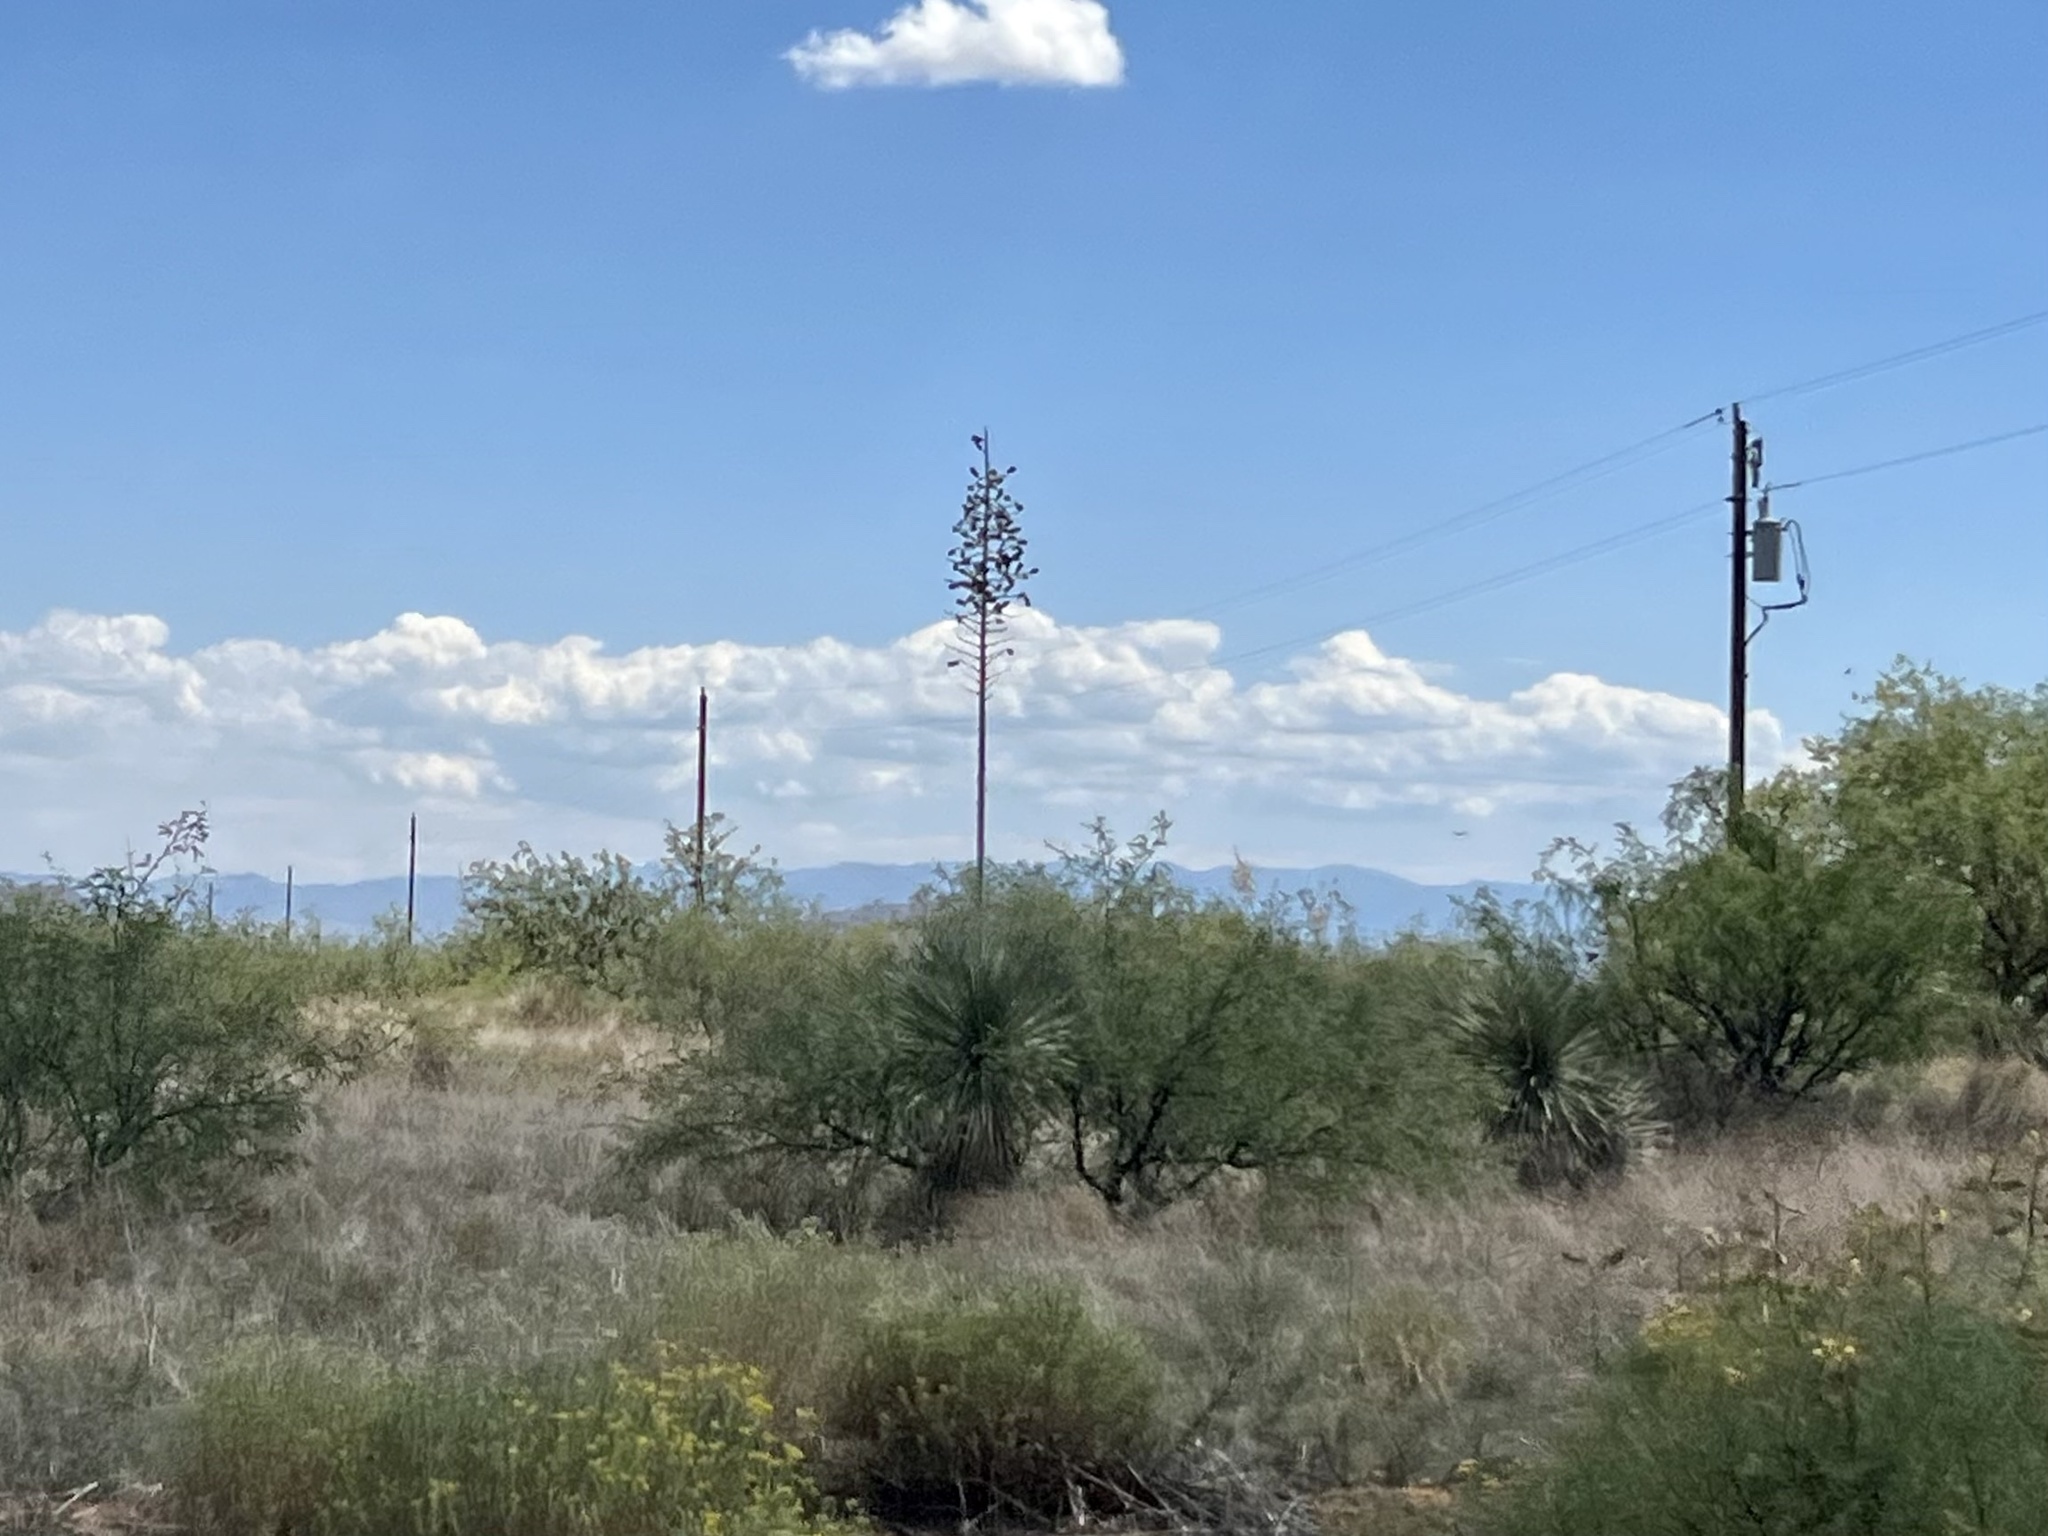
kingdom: Plantae
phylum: Tracheophyta
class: Liliopsida
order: Asparagales
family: Asparagaceae
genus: Yucca
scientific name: Yucca elata
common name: Palmella
